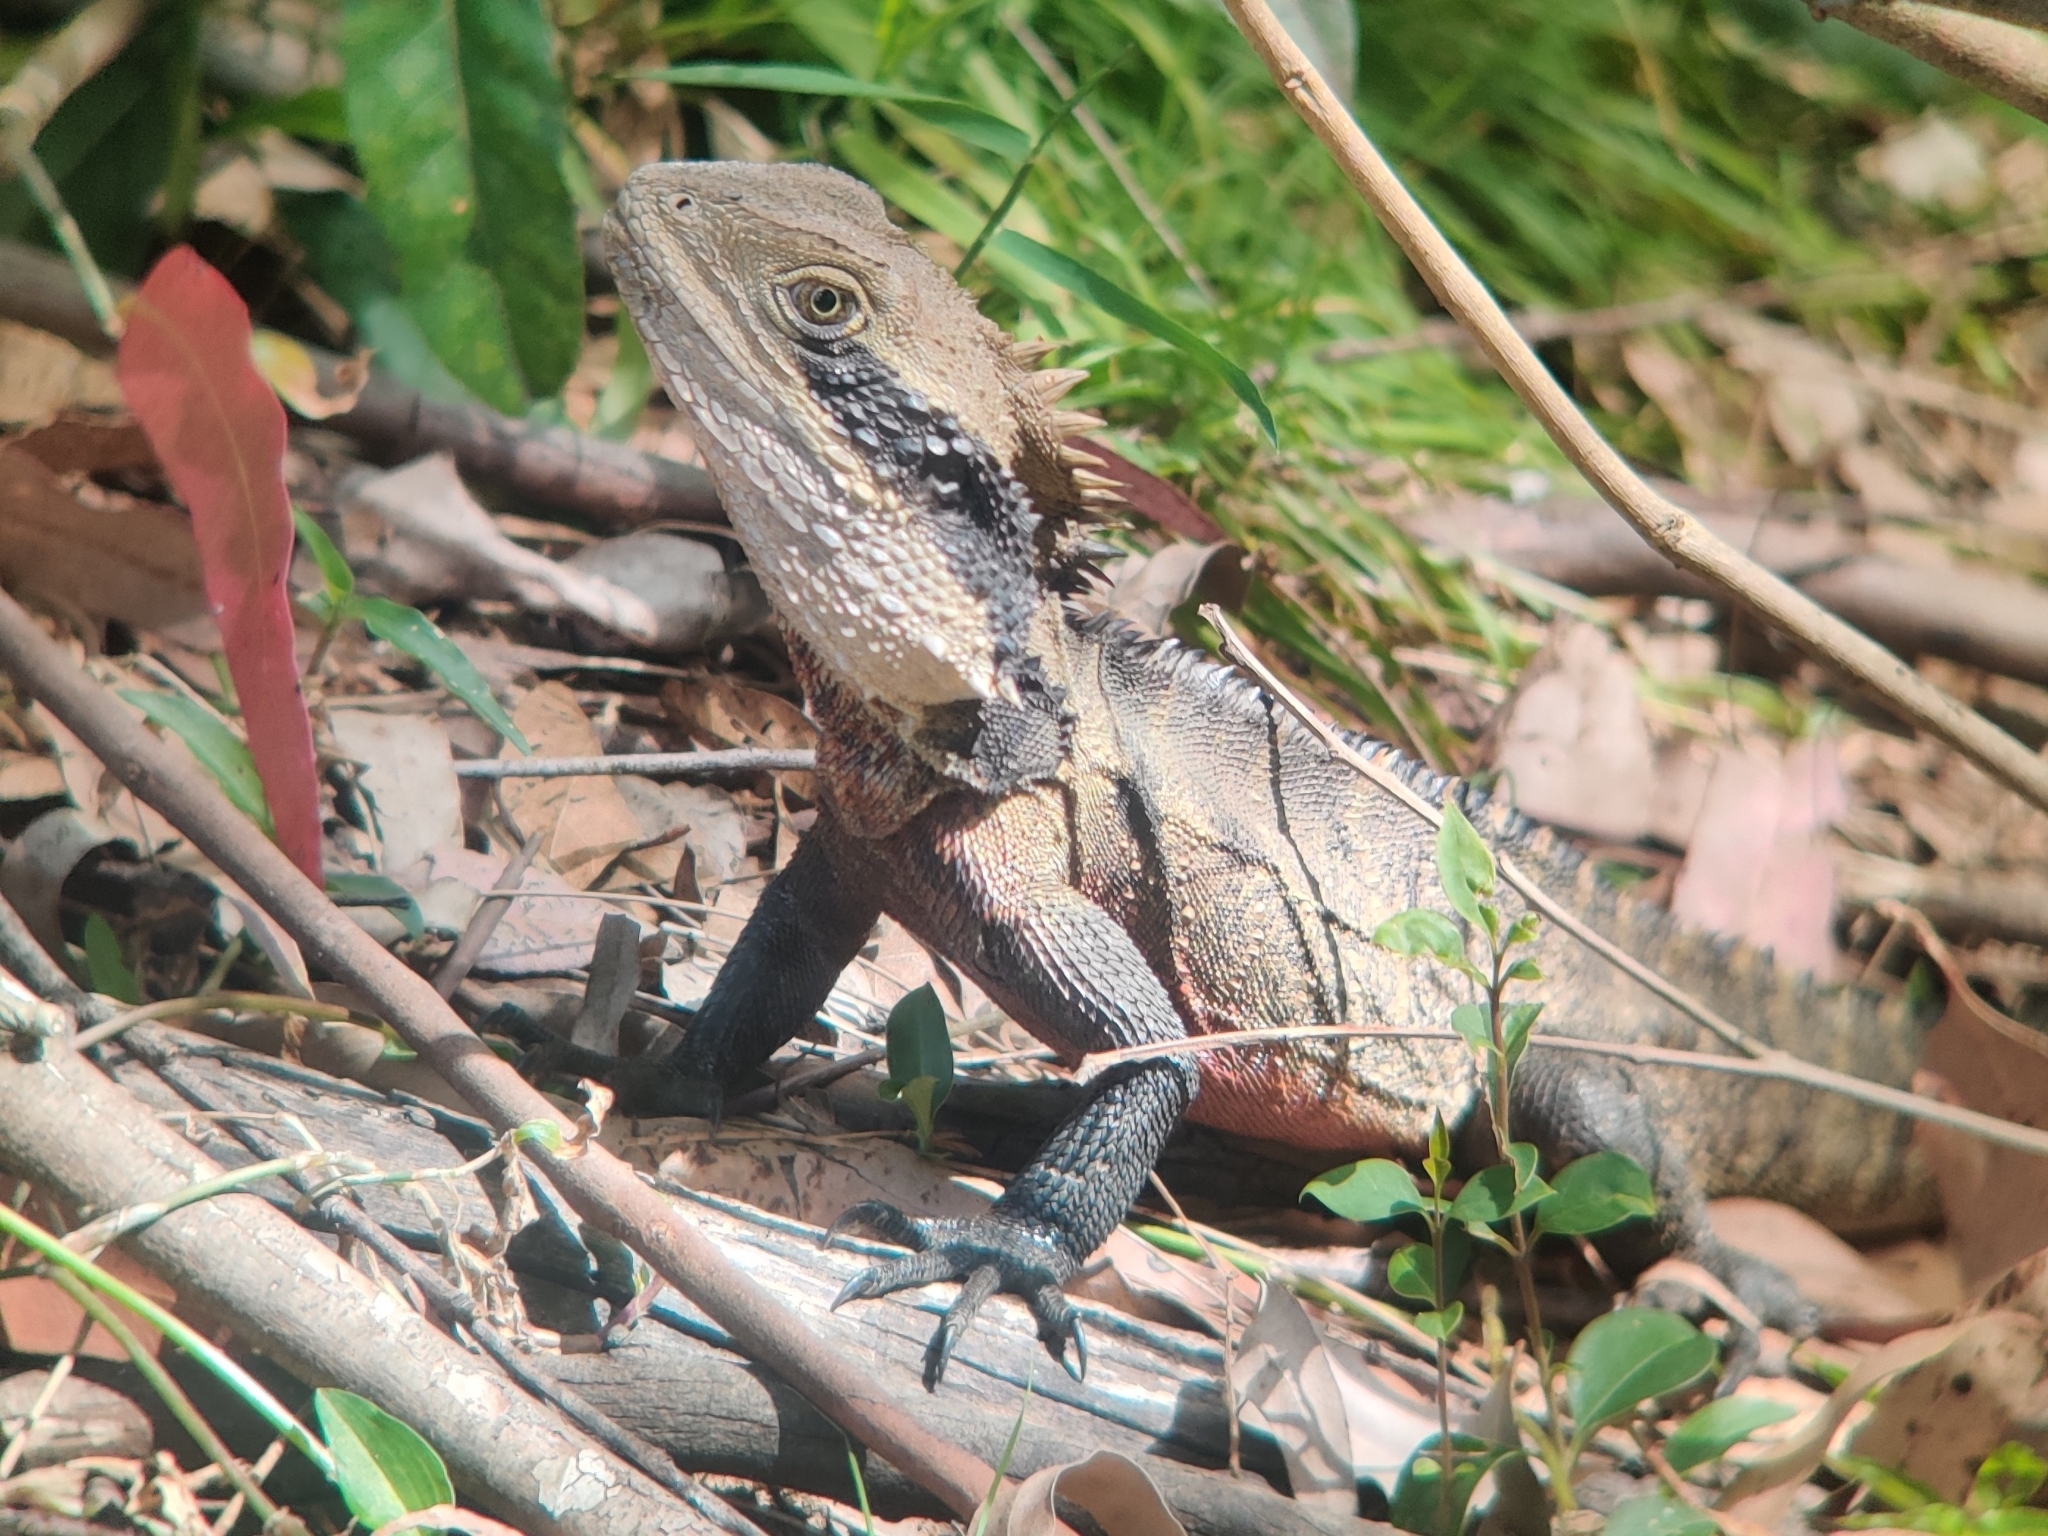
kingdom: Animalia
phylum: Chordata
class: Squamata
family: Agamidae
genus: Intellagama
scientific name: Intellagama lesueurii
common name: Eastern water dragon
